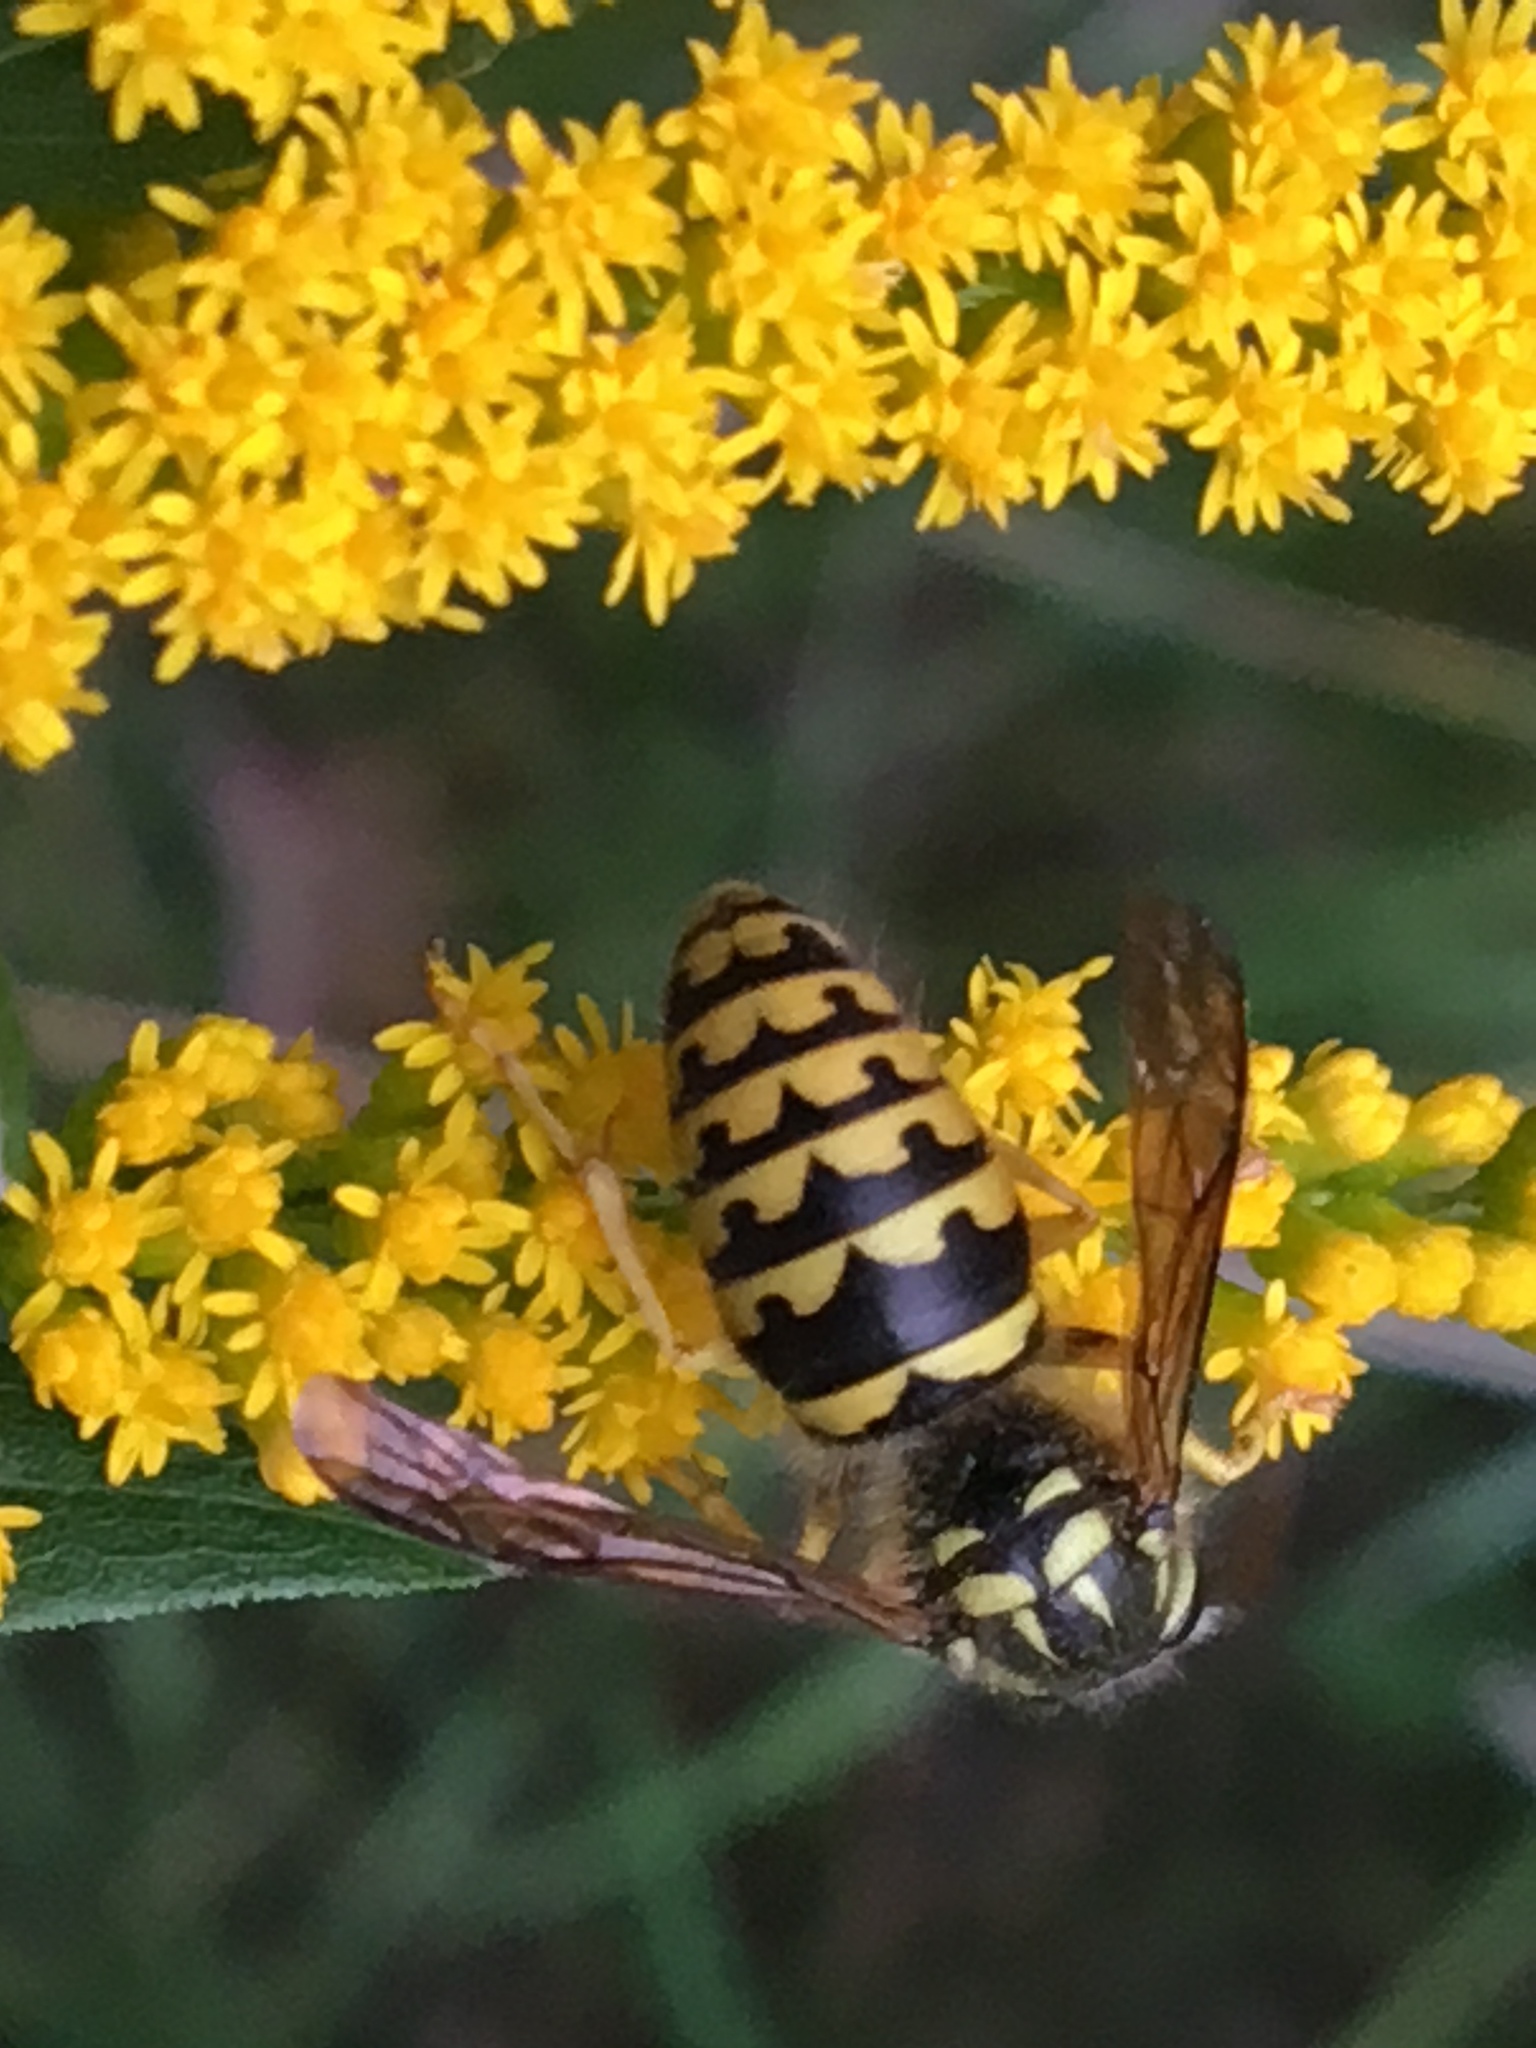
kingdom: Animalia
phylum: Arthropoda
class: Insecta
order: Hymenoptera
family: Vespidae
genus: Dolichovespula
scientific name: Dolichovespula arenaria
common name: Aerial yellowjacket
